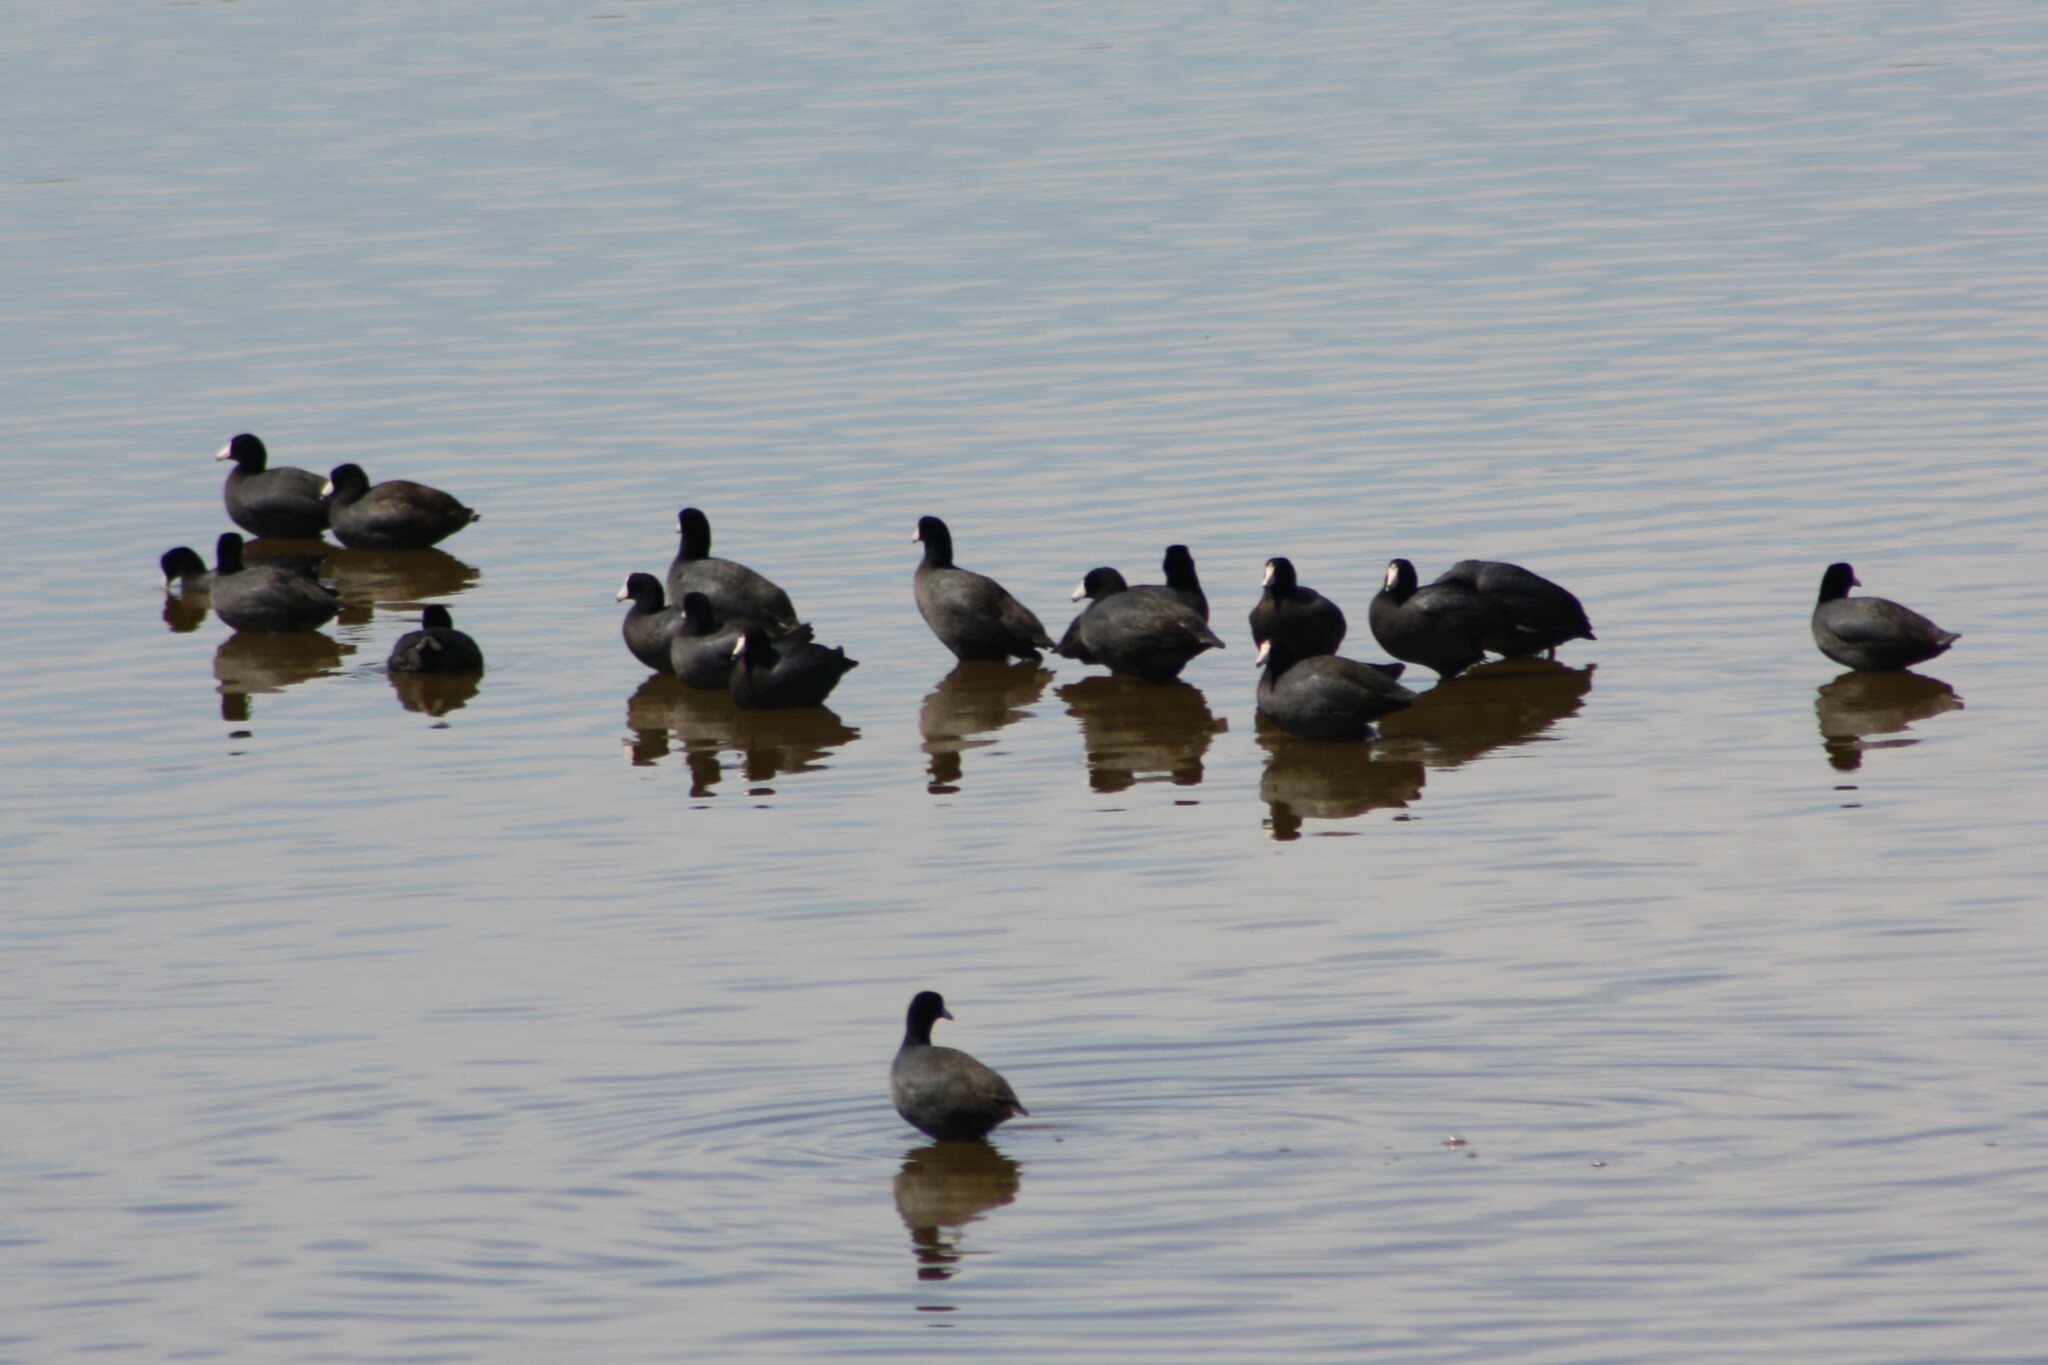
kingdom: Animalia
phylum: Chordata
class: Aves
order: Gruiformes
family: Rallidae
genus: Fulica
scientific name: Fulica americana
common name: American coot
